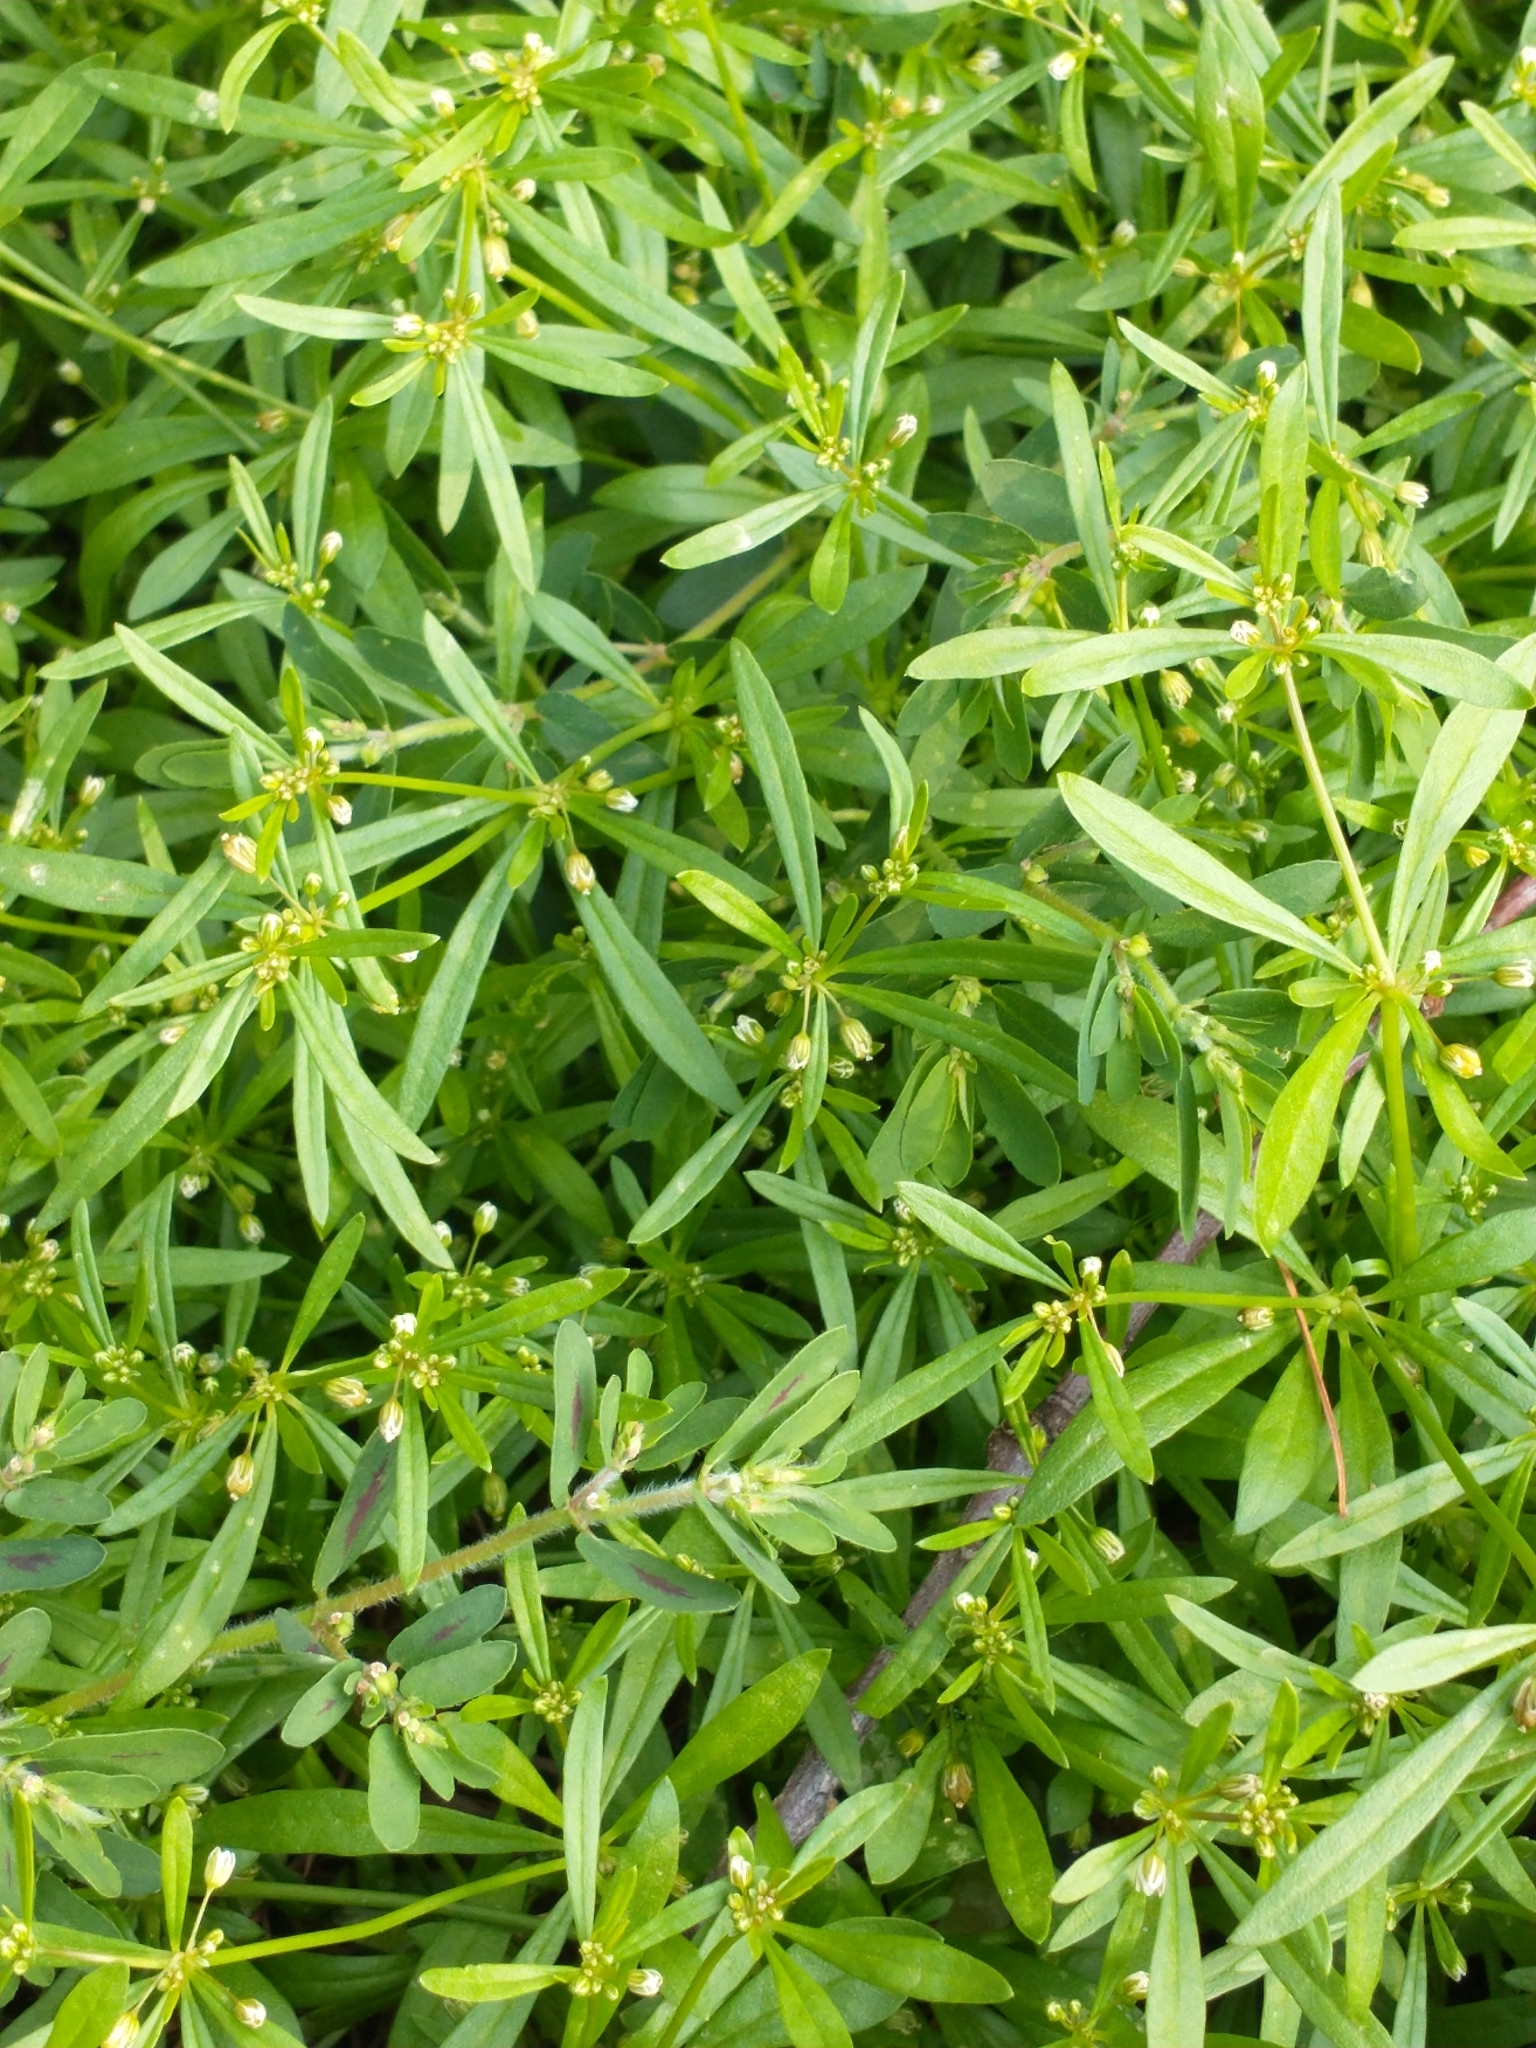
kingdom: Plantae
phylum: Tracheophyta
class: Magnoliopsida
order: Caryophyllales
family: Molluginaceae
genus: Mollugo
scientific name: Mollugo verticillata
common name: Green carpetweed
